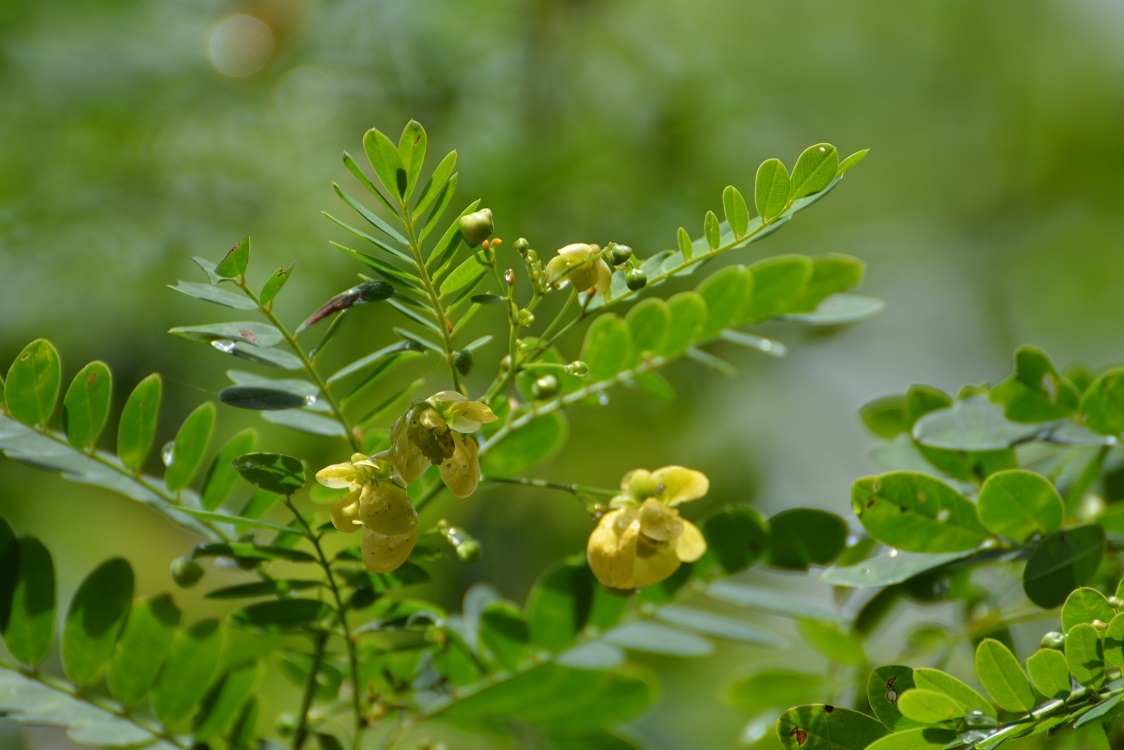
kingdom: Plantae
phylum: Tracheophyta
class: Magnoliopsida
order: Fabales
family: Fabaceae
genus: Senna
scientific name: Senna pallida
